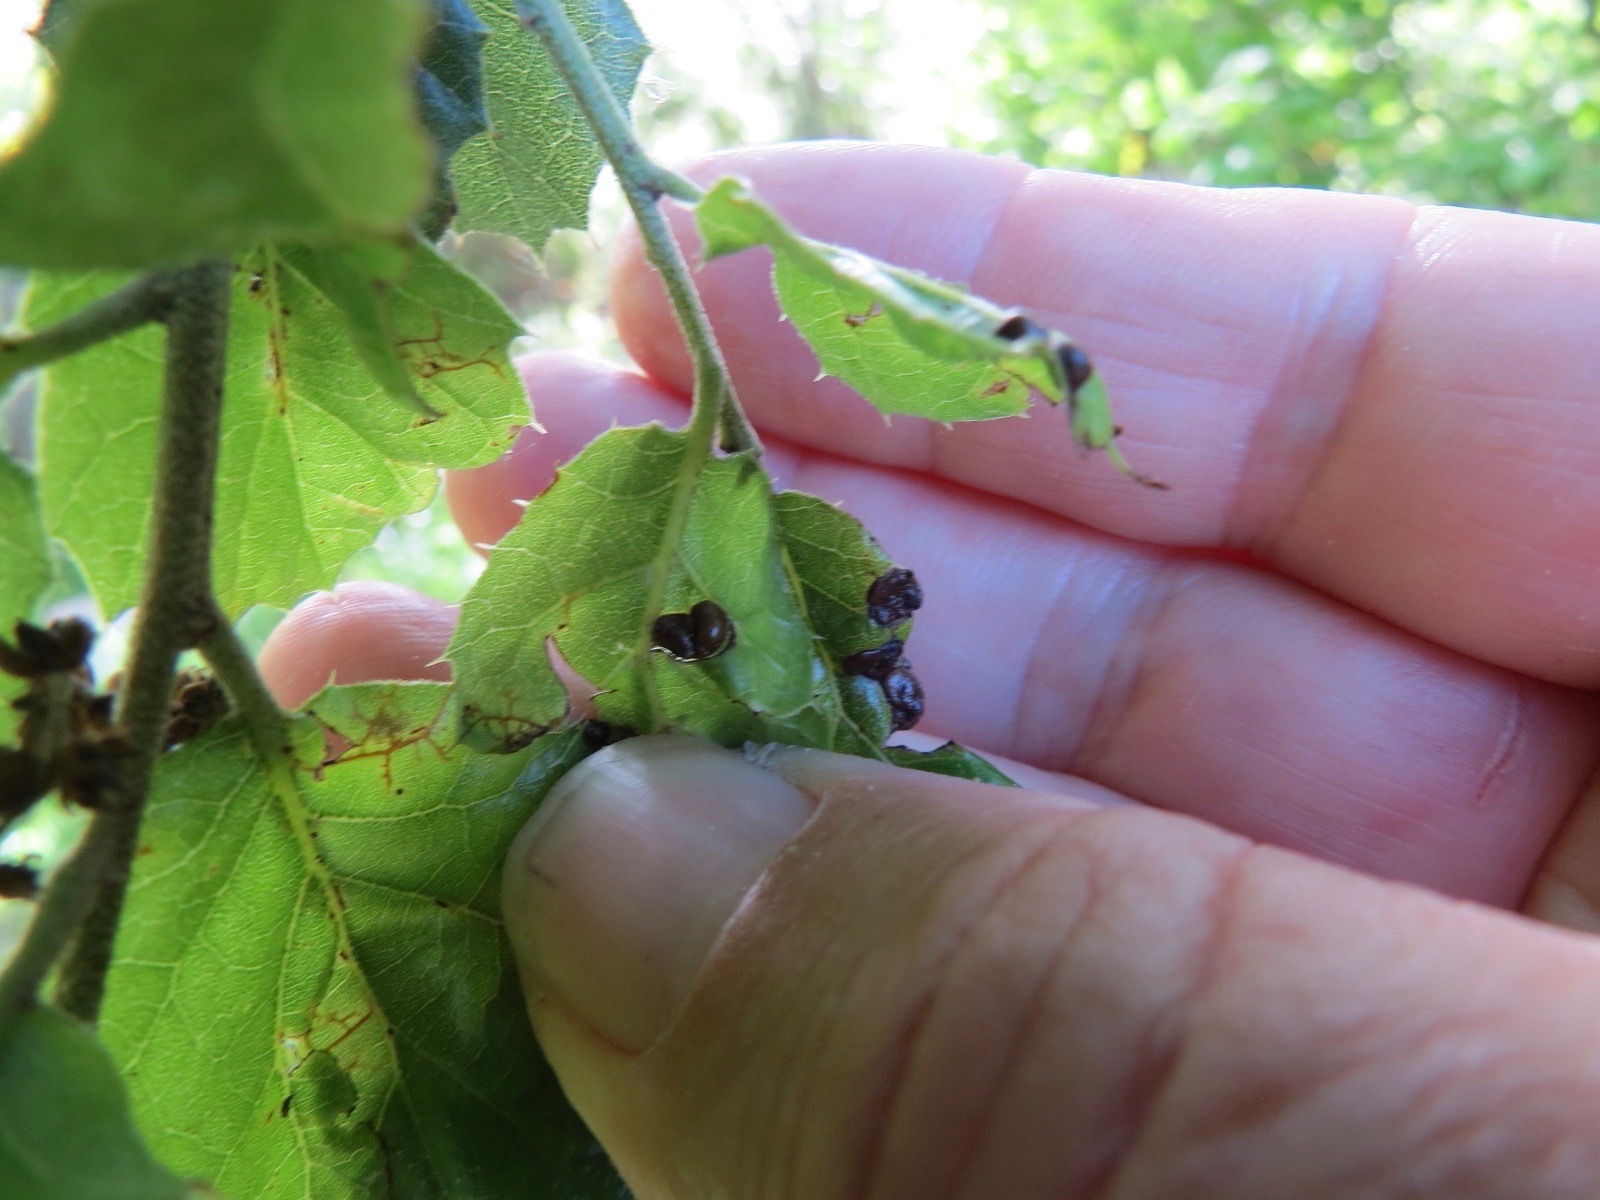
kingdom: Animalia
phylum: Arthropoda
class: Insecta
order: Hymenoptera
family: Cynipidae
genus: Dryocosmus
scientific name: Dryocosmus
